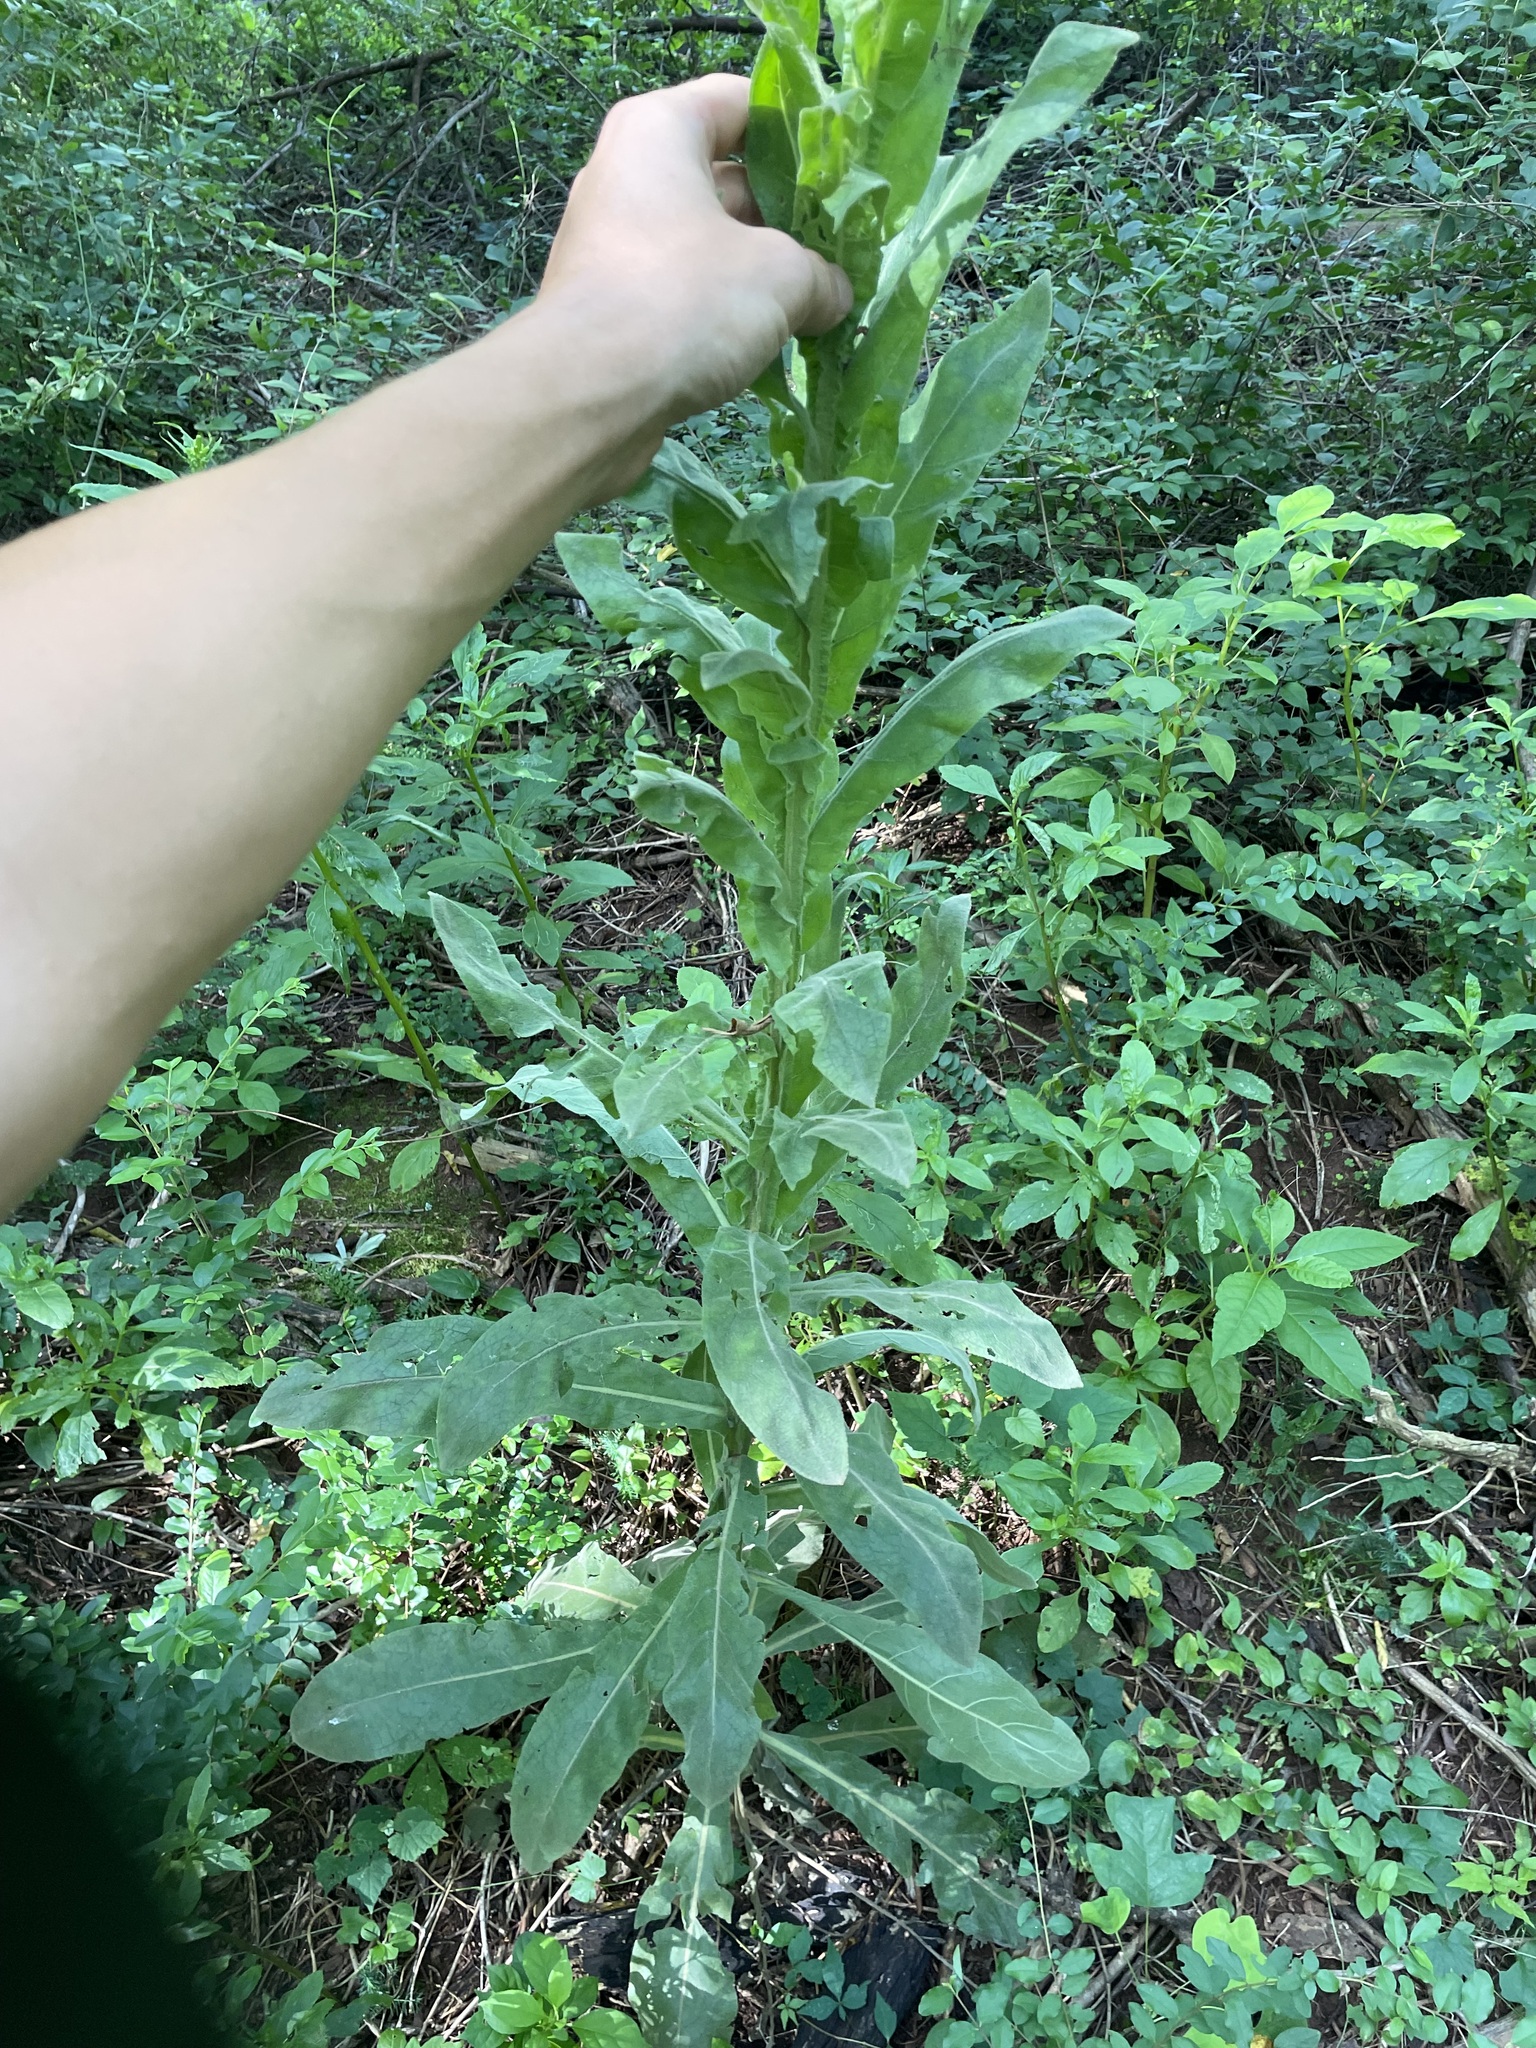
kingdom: Plantae
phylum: Tracheophyta
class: Magnoliopsida
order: Lamiales
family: Scrophulariaceae
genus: Verbascum
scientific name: Verbascum thapsus
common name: Common mullein
